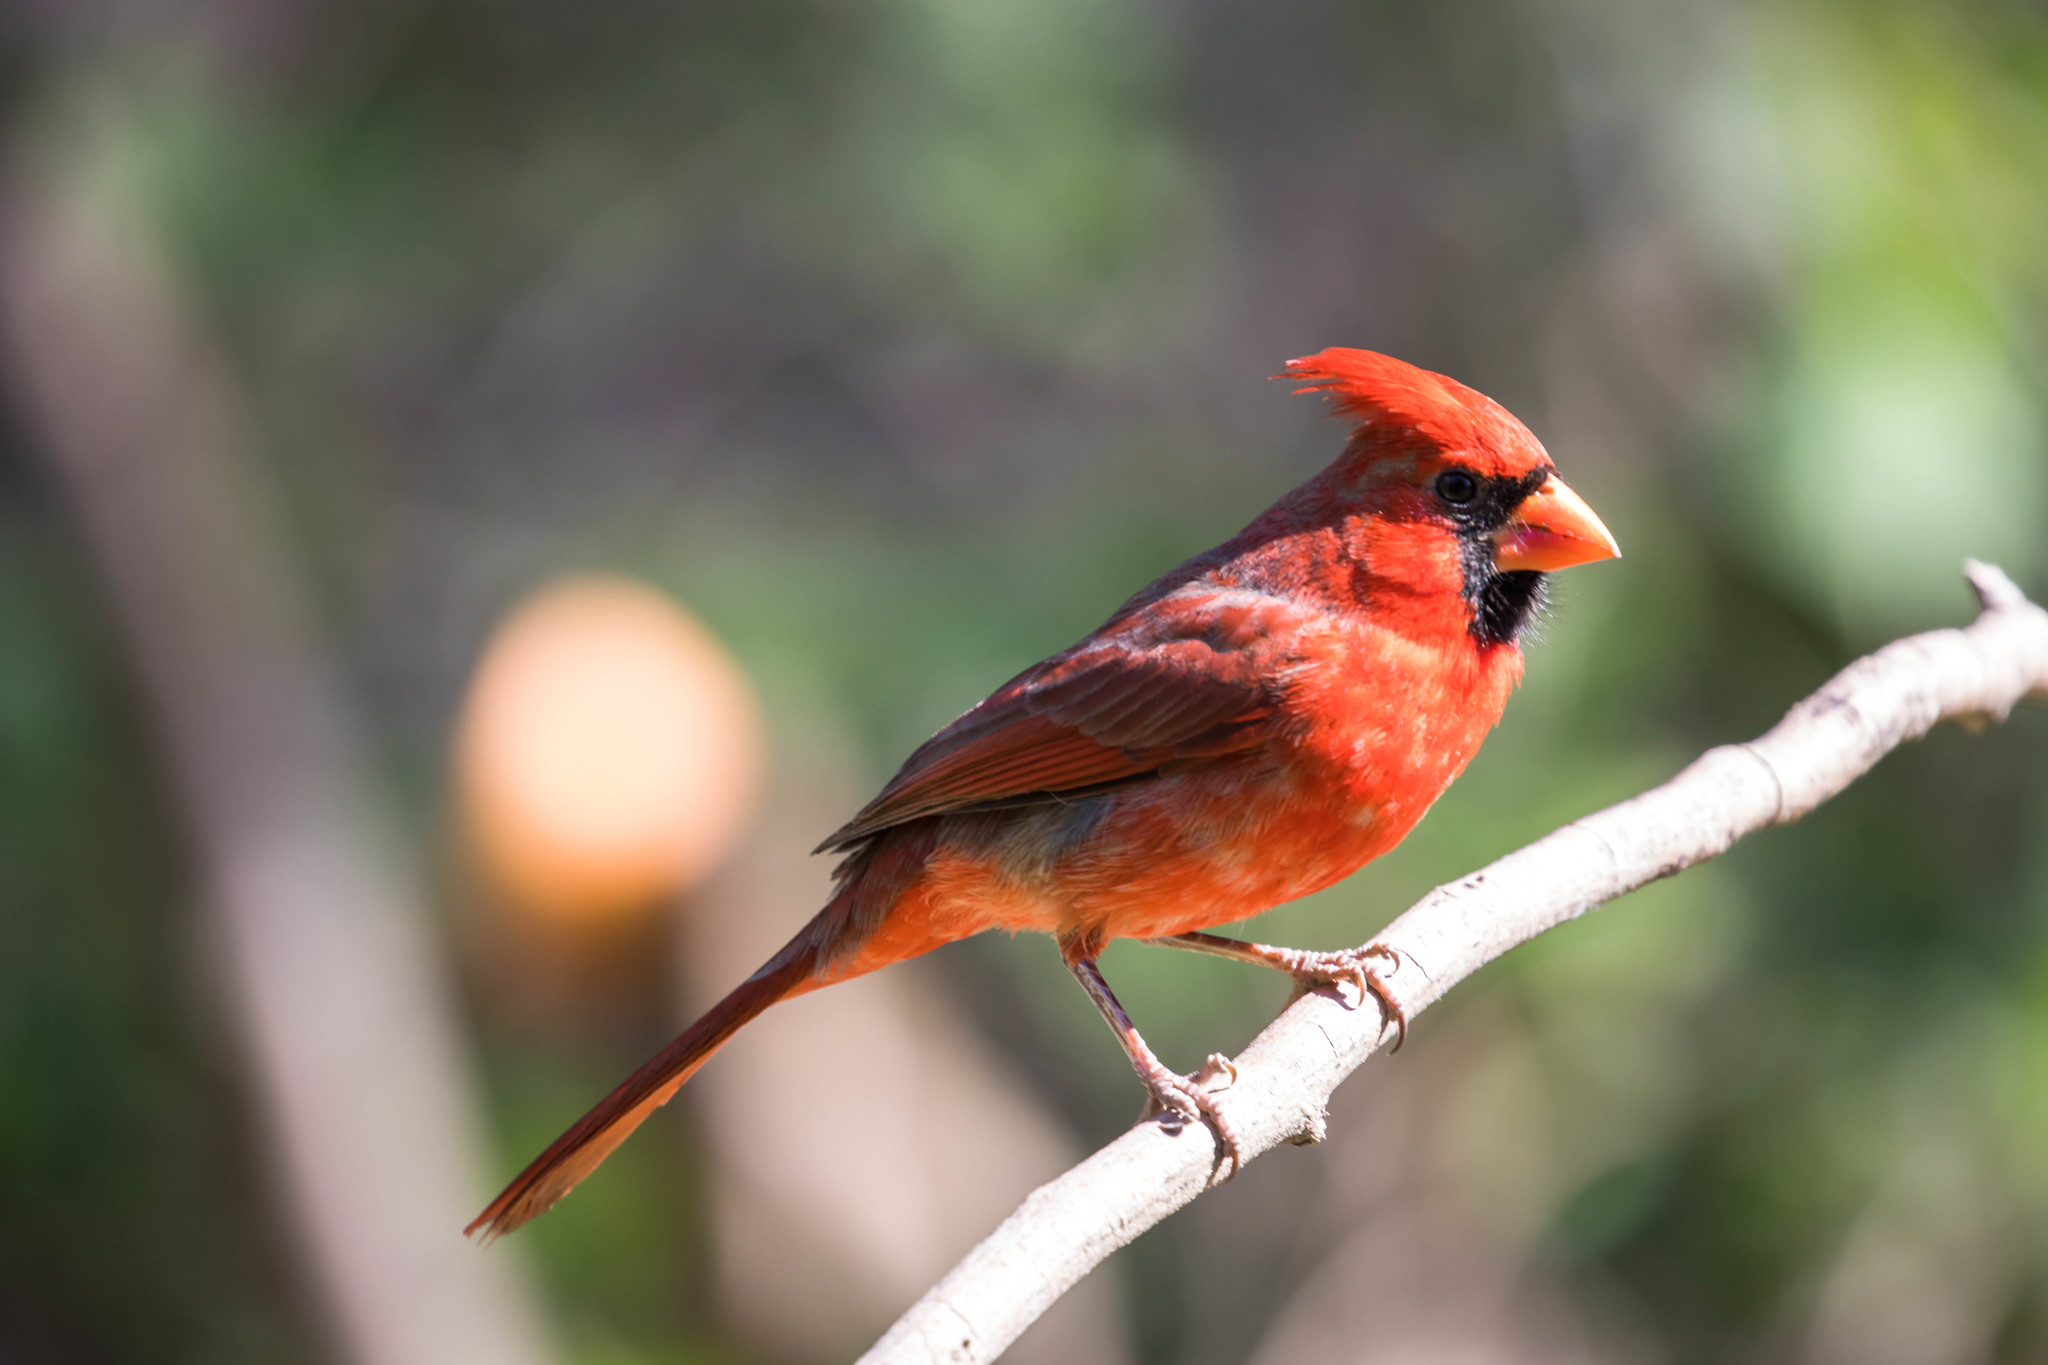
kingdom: Animalia
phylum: Chordata
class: Aves
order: Passeriformes
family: Cardinalidae
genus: Cardinalis
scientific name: Cardinalis cardinalis
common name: Northern cardinal
